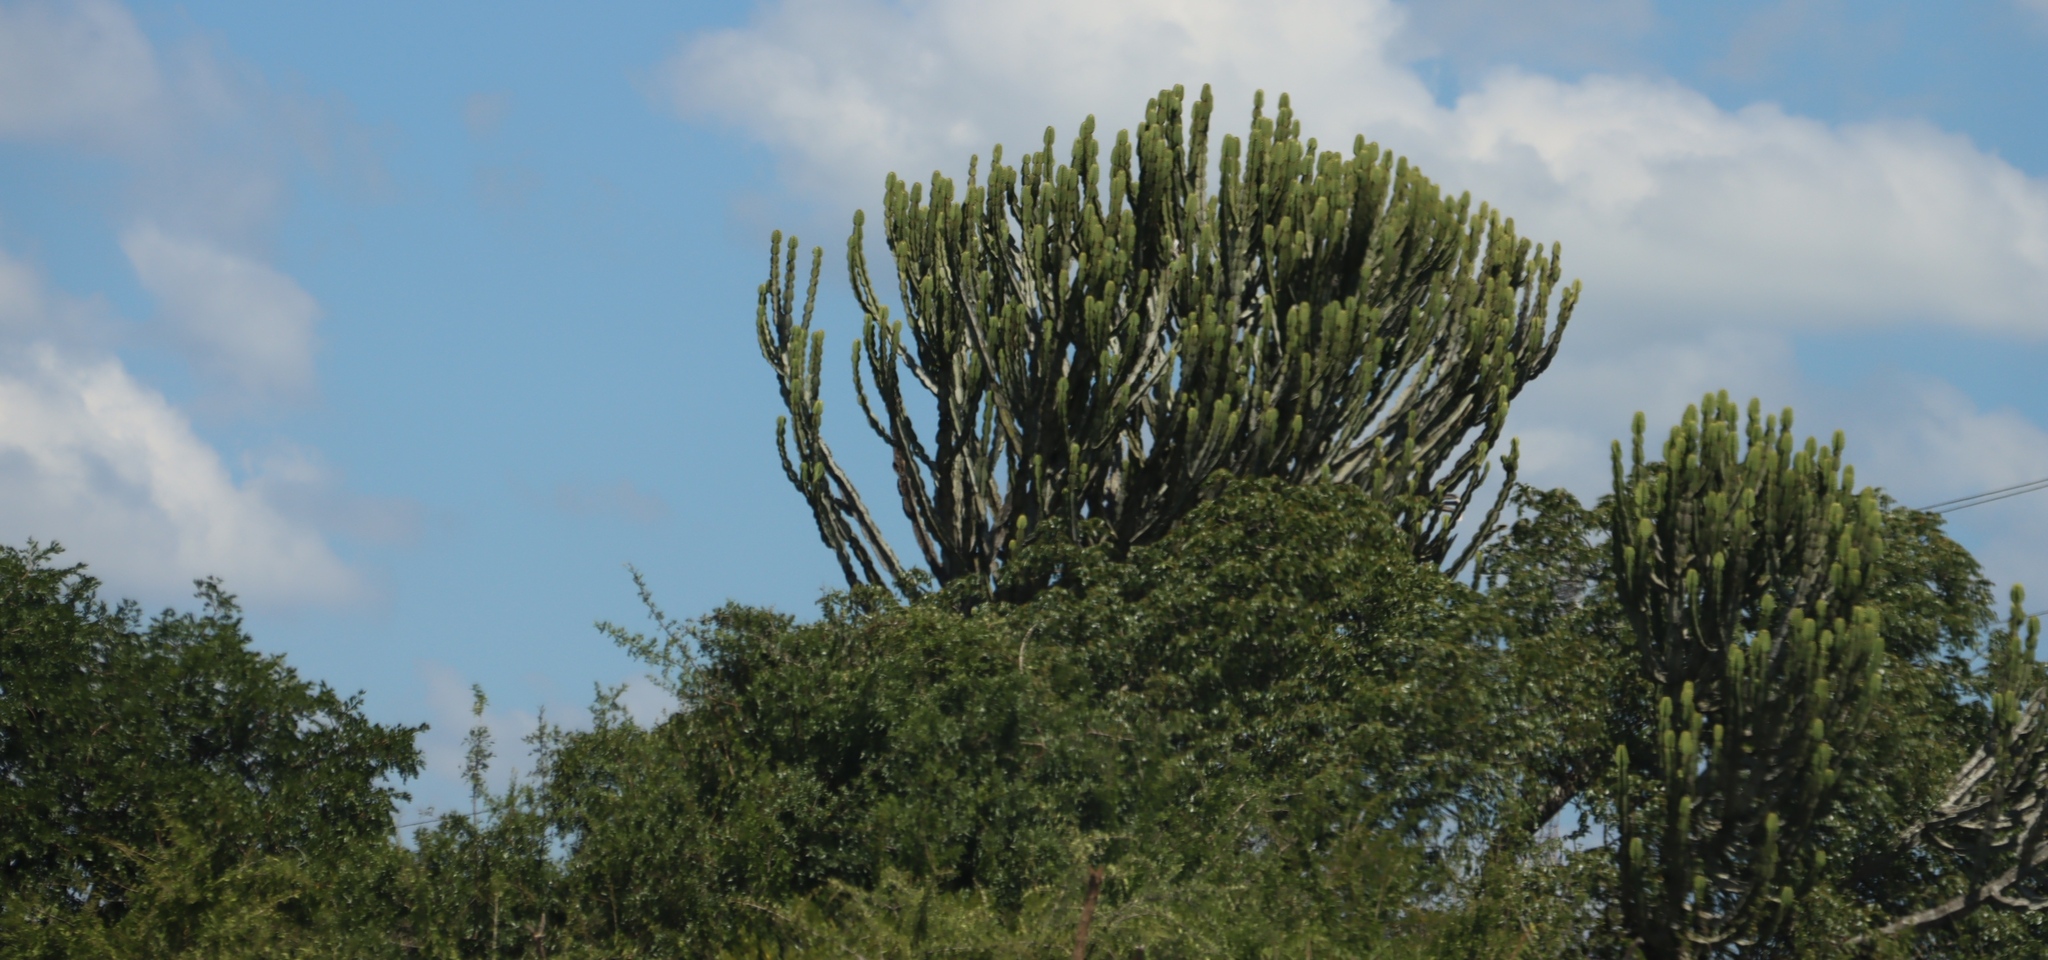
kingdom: Plantae
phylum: Tracheophyta
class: Magnoliopsida
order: Malpighiales
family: Euphorbiaceae
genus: Euphorbia
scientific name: Euphorbia ingens
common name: Cactus spurge
